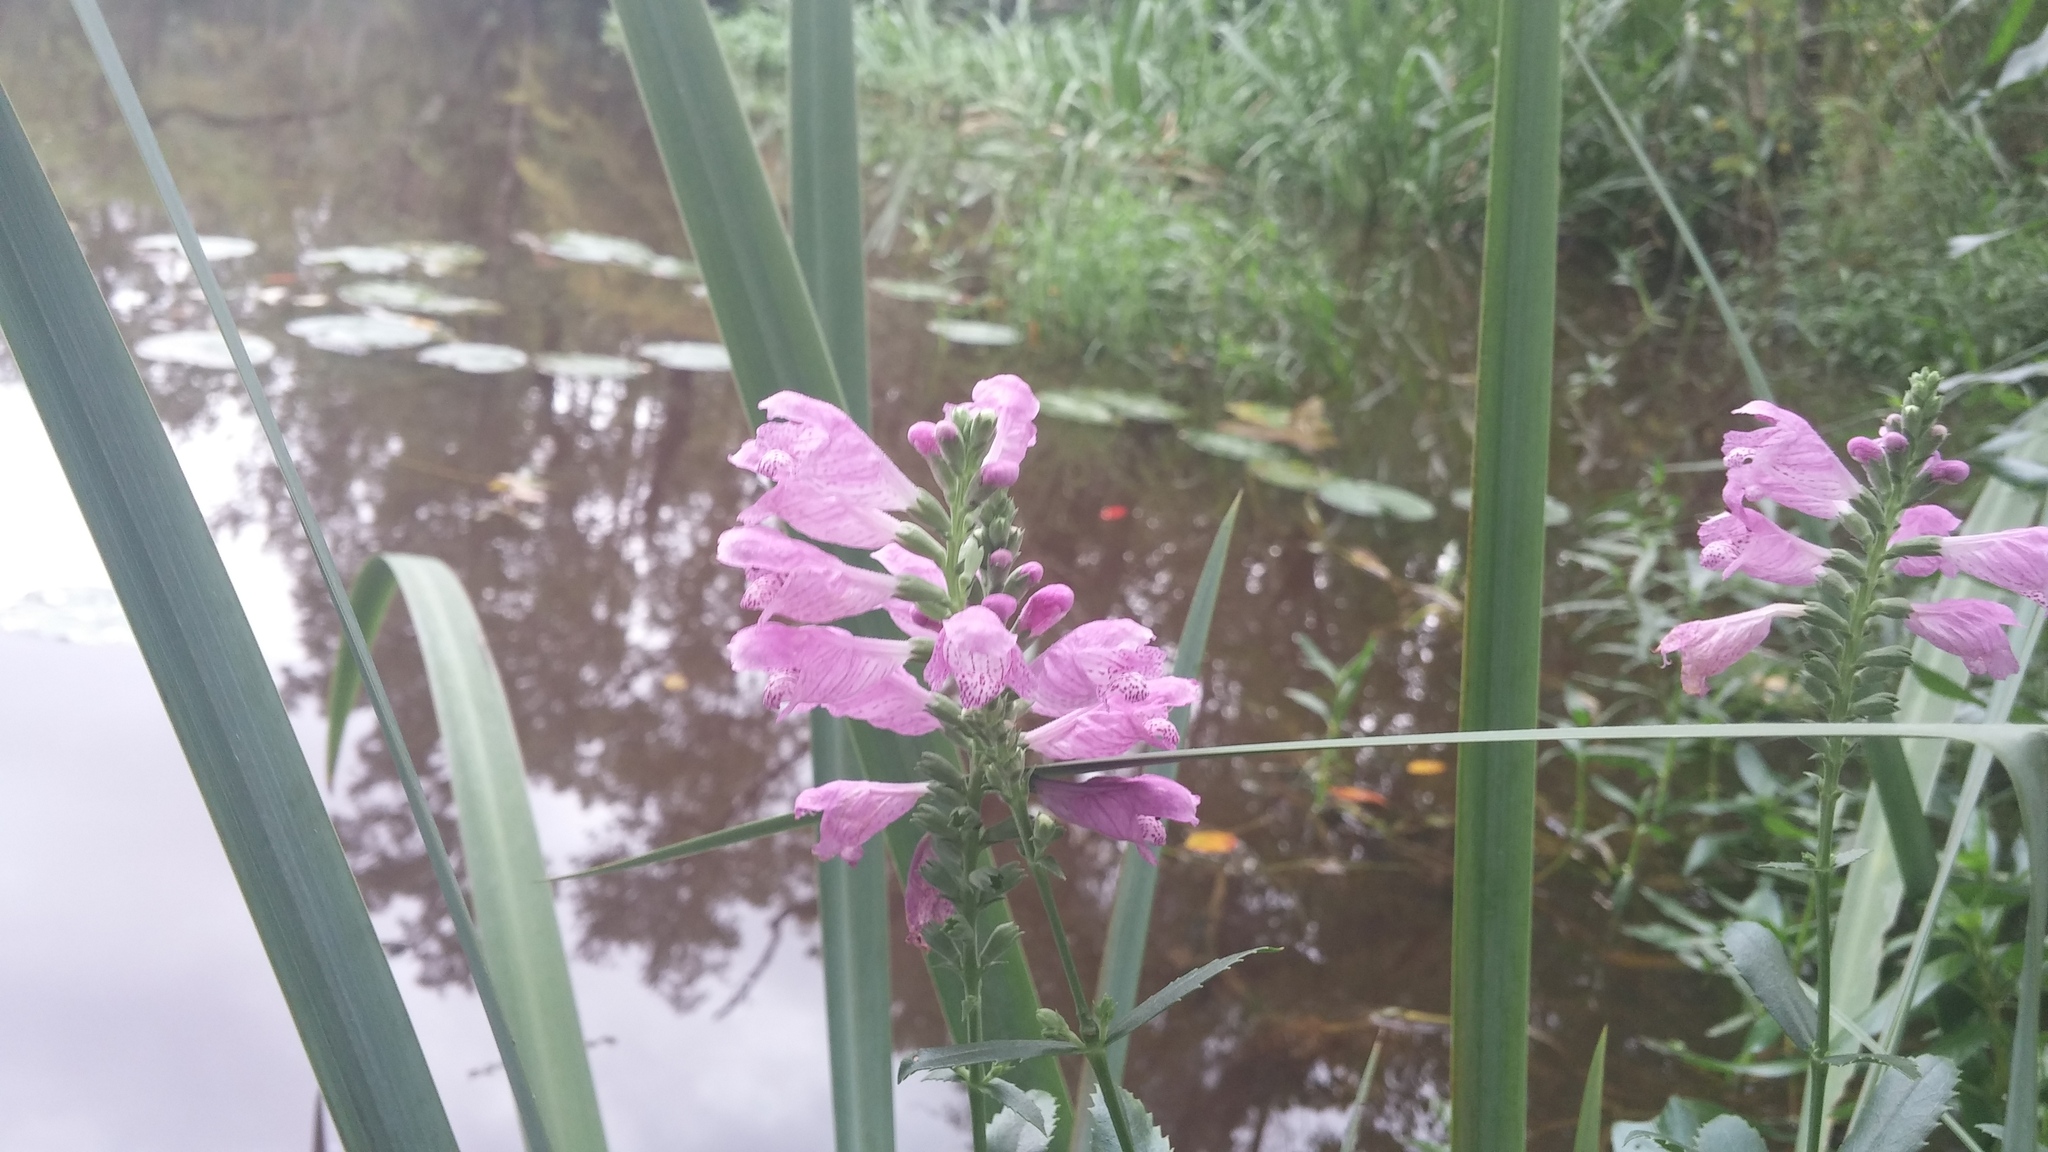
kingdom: Plantae
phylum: Tracheophyta
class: Magnoliopsida
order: Lamiales
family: Lamiaceae
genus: Physostegia
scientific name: Physostegia virginiana
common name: Obedient-plant
